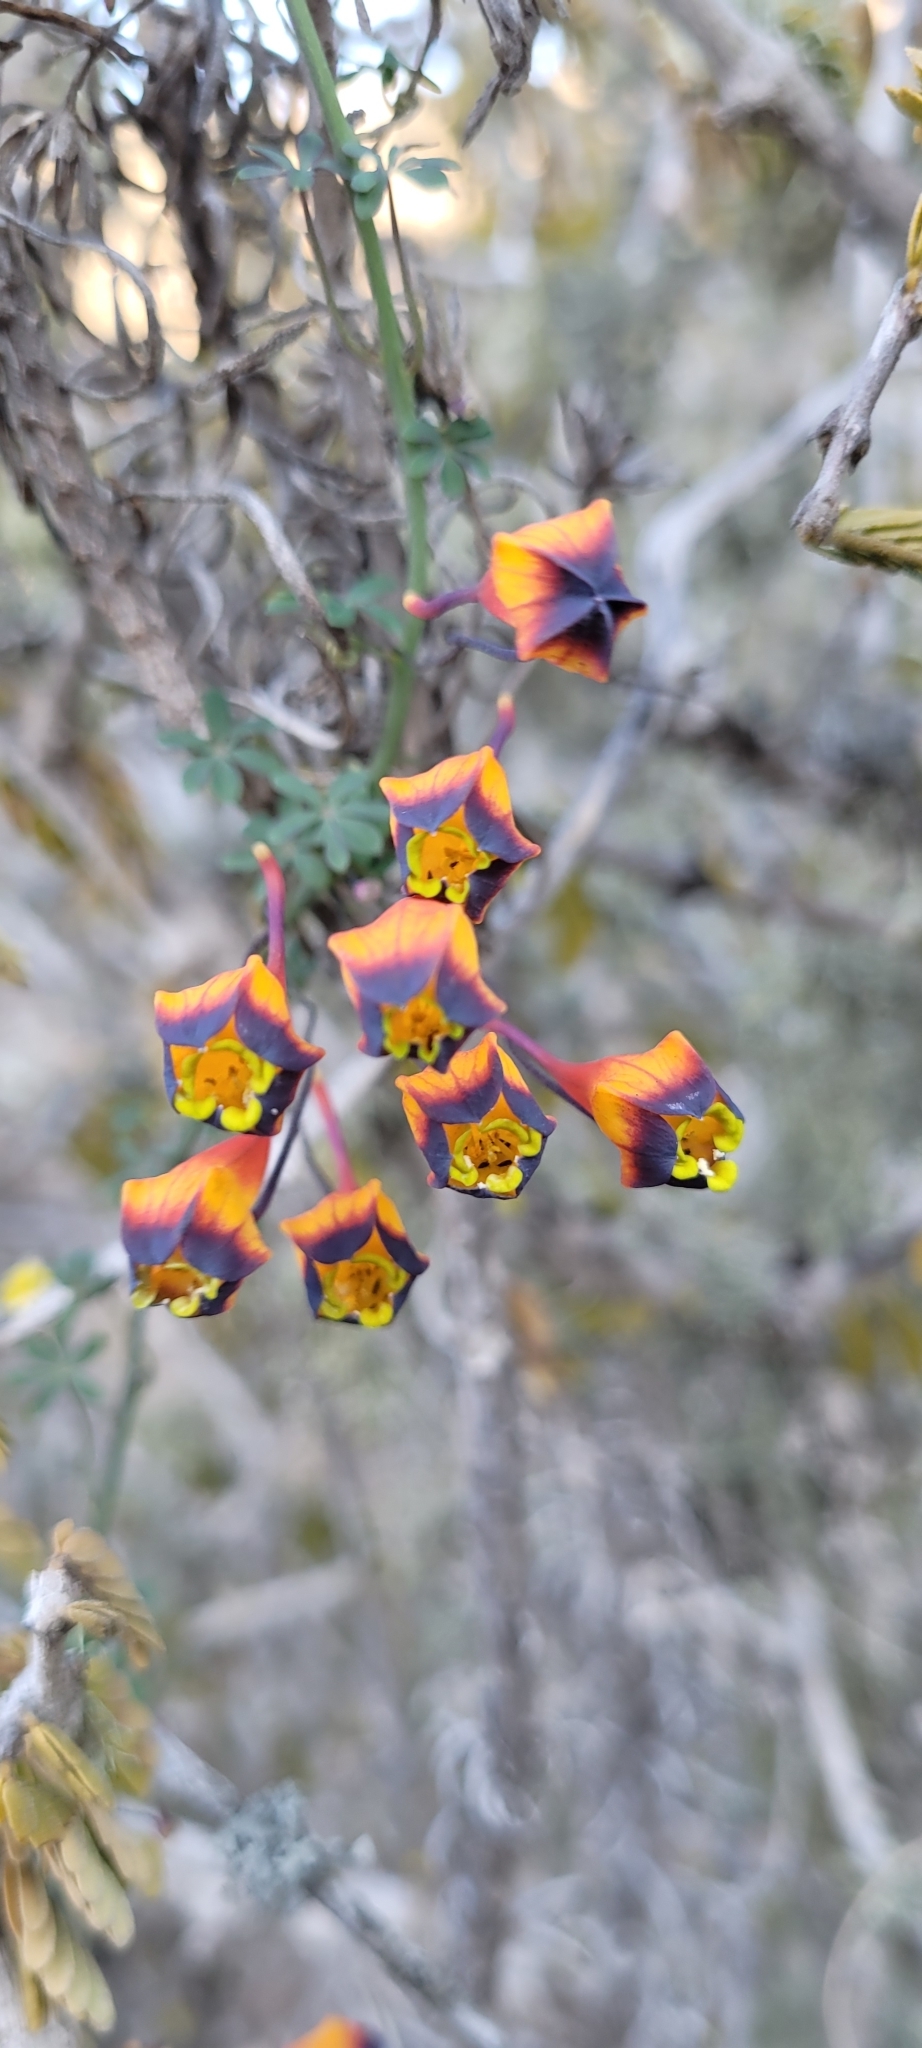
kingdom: Plantae
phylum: Tracheophyta
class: Magnoliopsida
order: Brassicales
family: Tropaeolaceae
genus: Tropaeolum
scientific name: Tropaeolum tricolor
